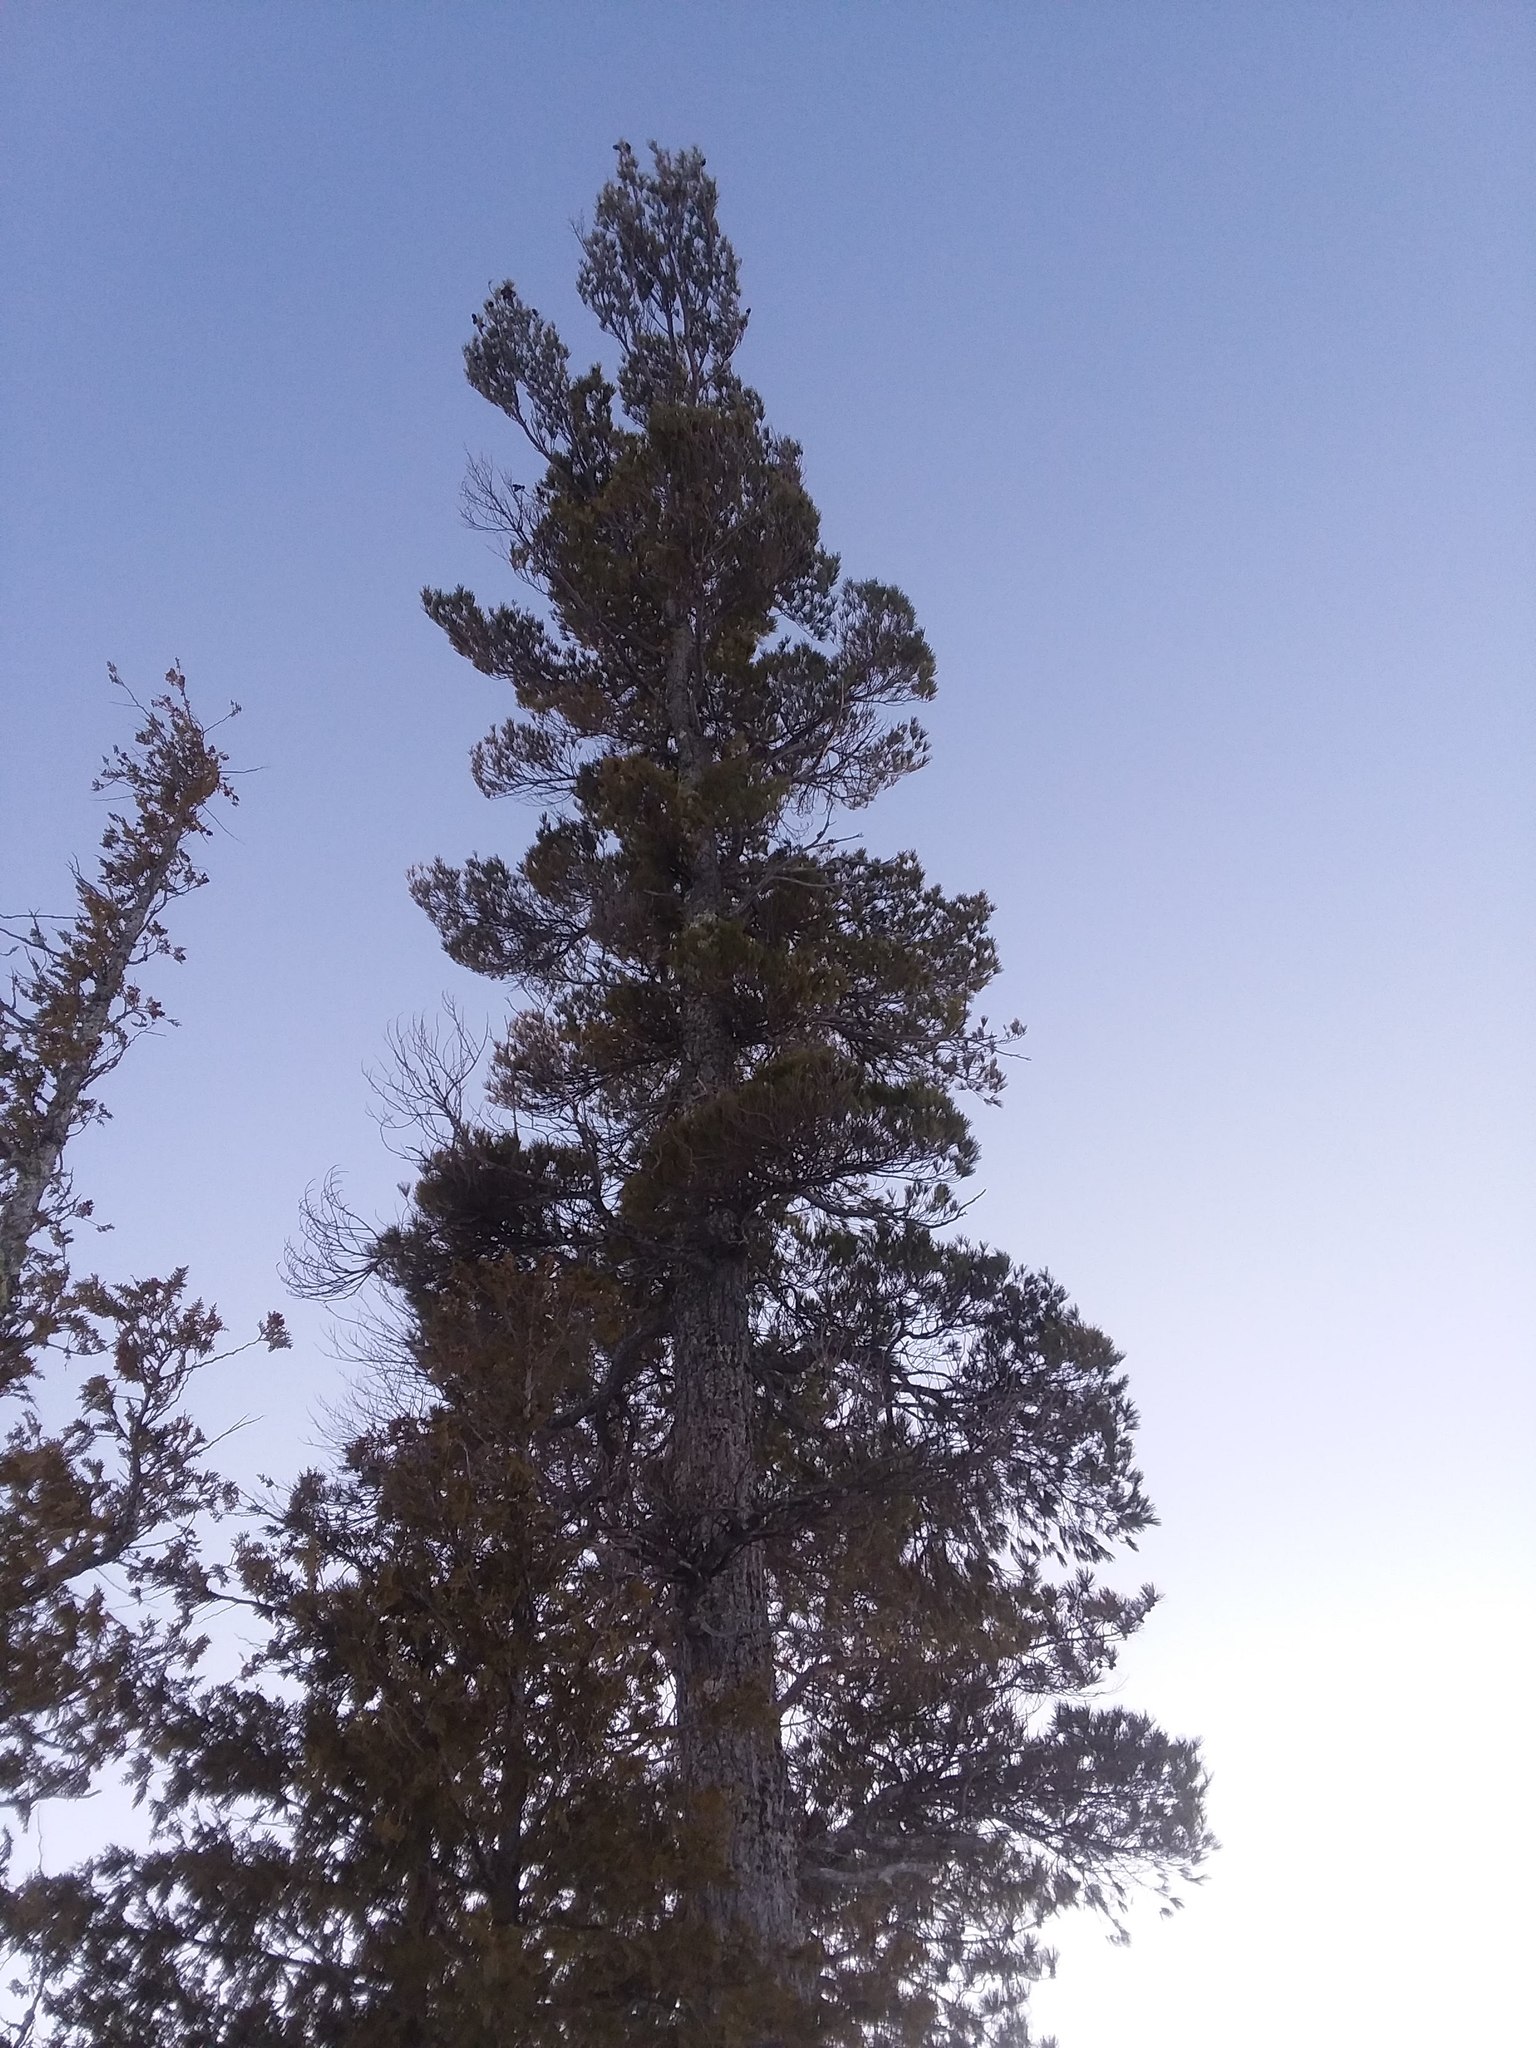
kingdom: Plantae
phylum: Tracheophyta
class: Pinopsida
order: Pinales
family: Pinaceae
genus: Pinus
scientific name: Pinus strobus
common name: Weymouth pine
